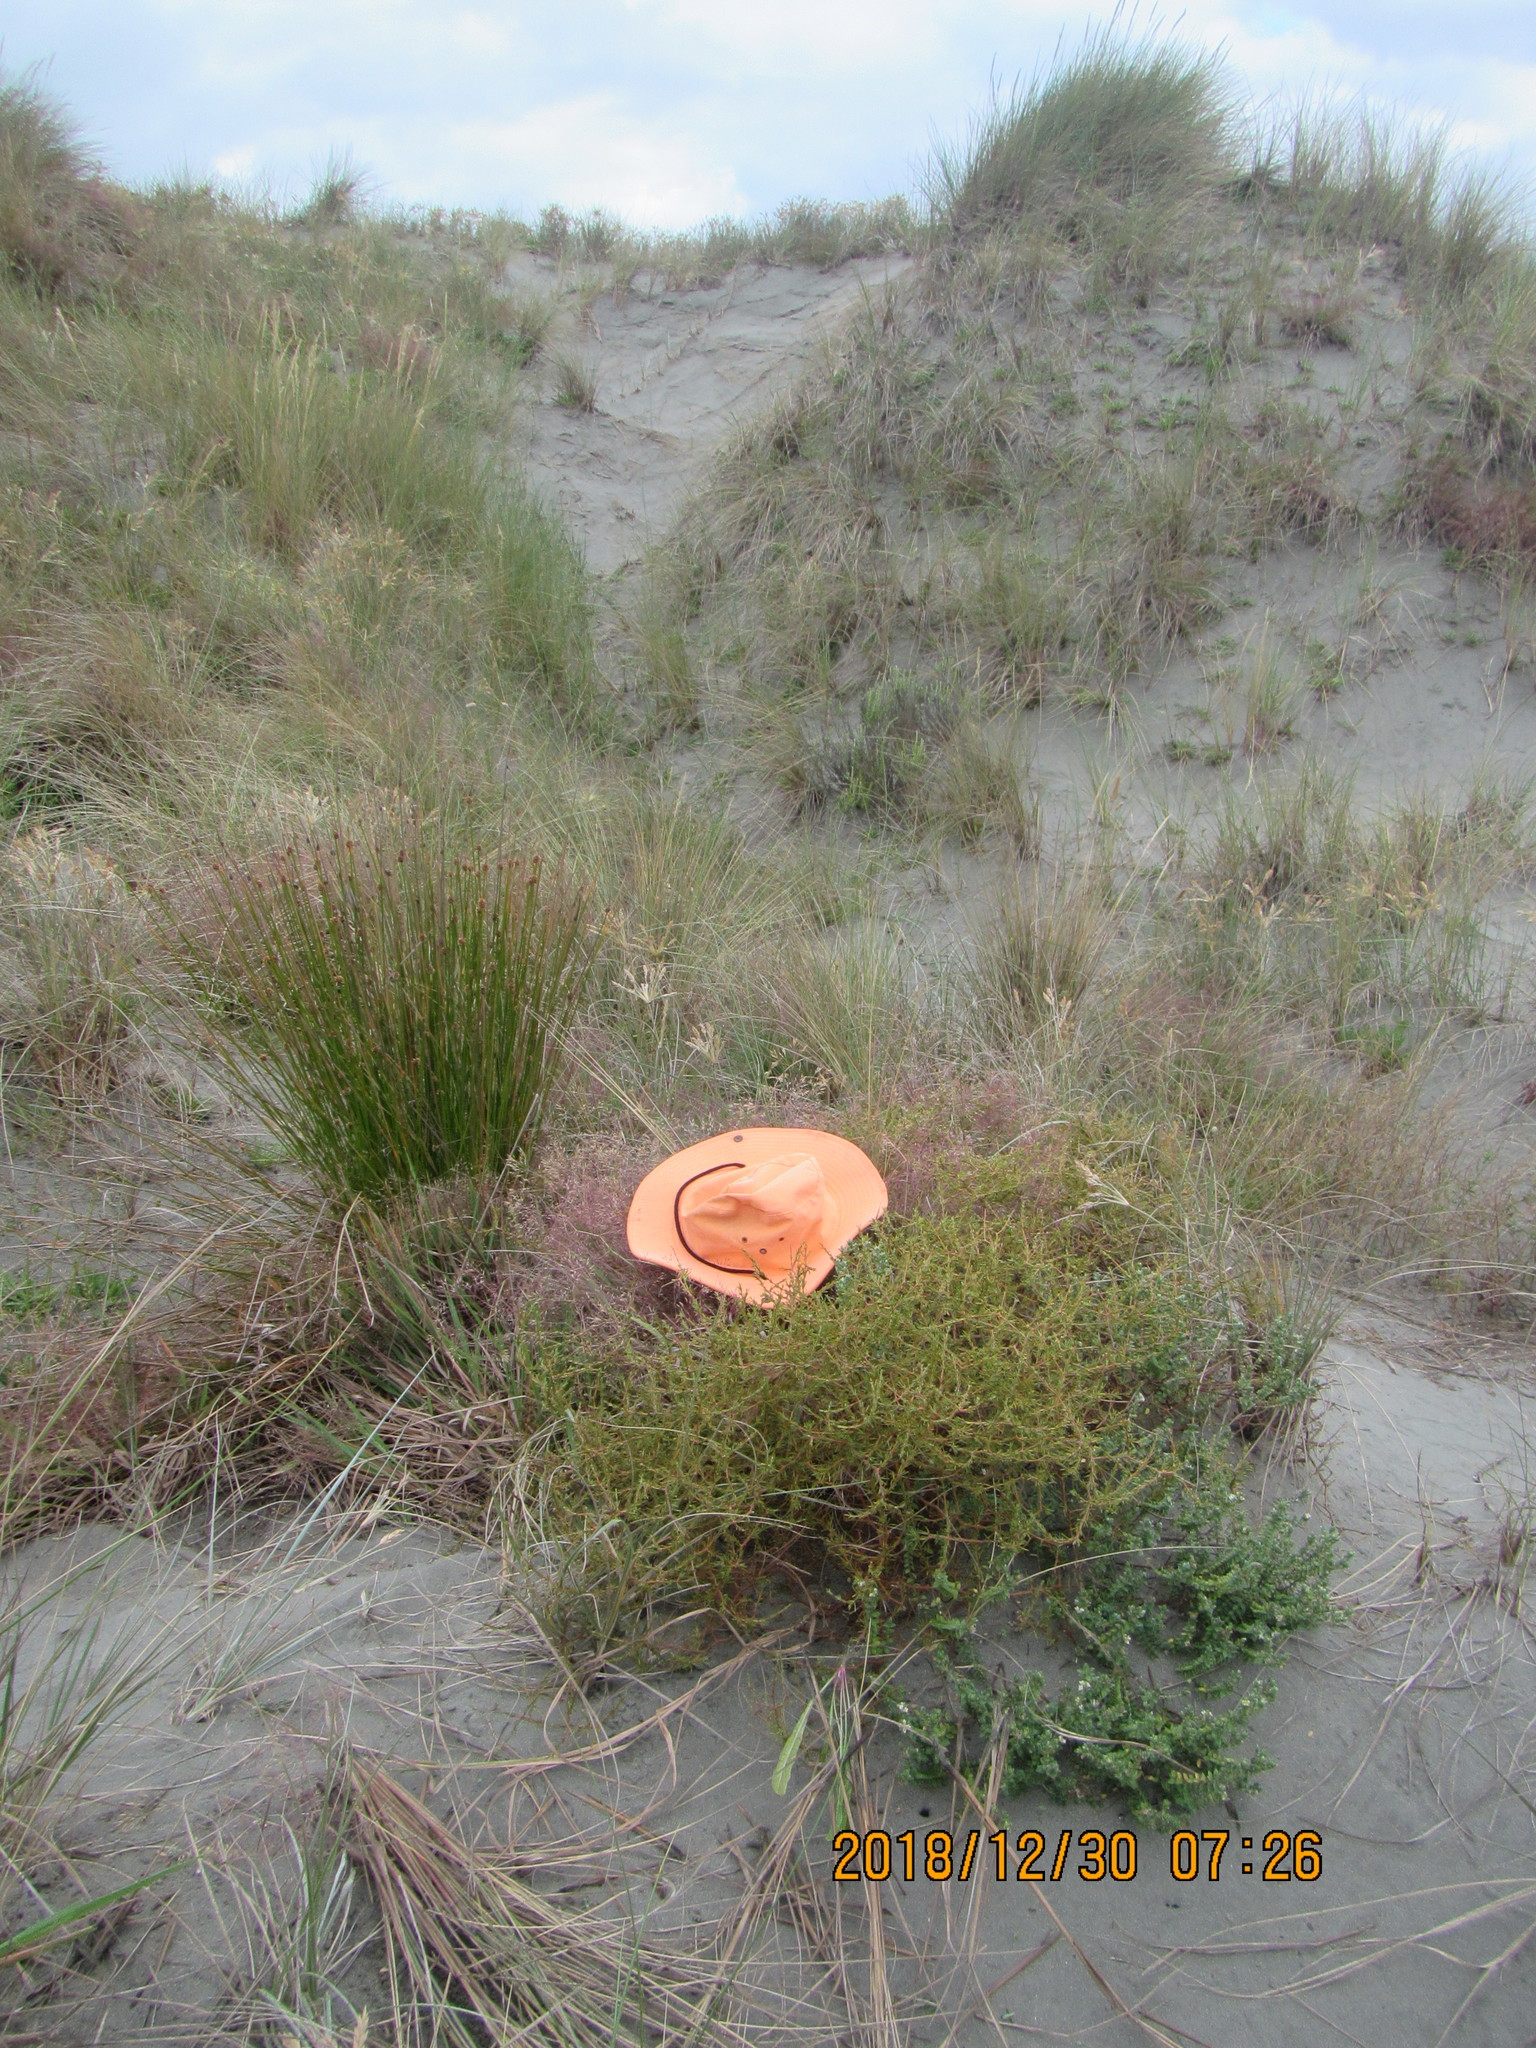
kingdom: Animalia
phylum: Arthropoda
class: Arachnida
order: Araneae
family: Oxyopidae
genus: Oxyopes
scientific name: Oxyopes gracilipes
